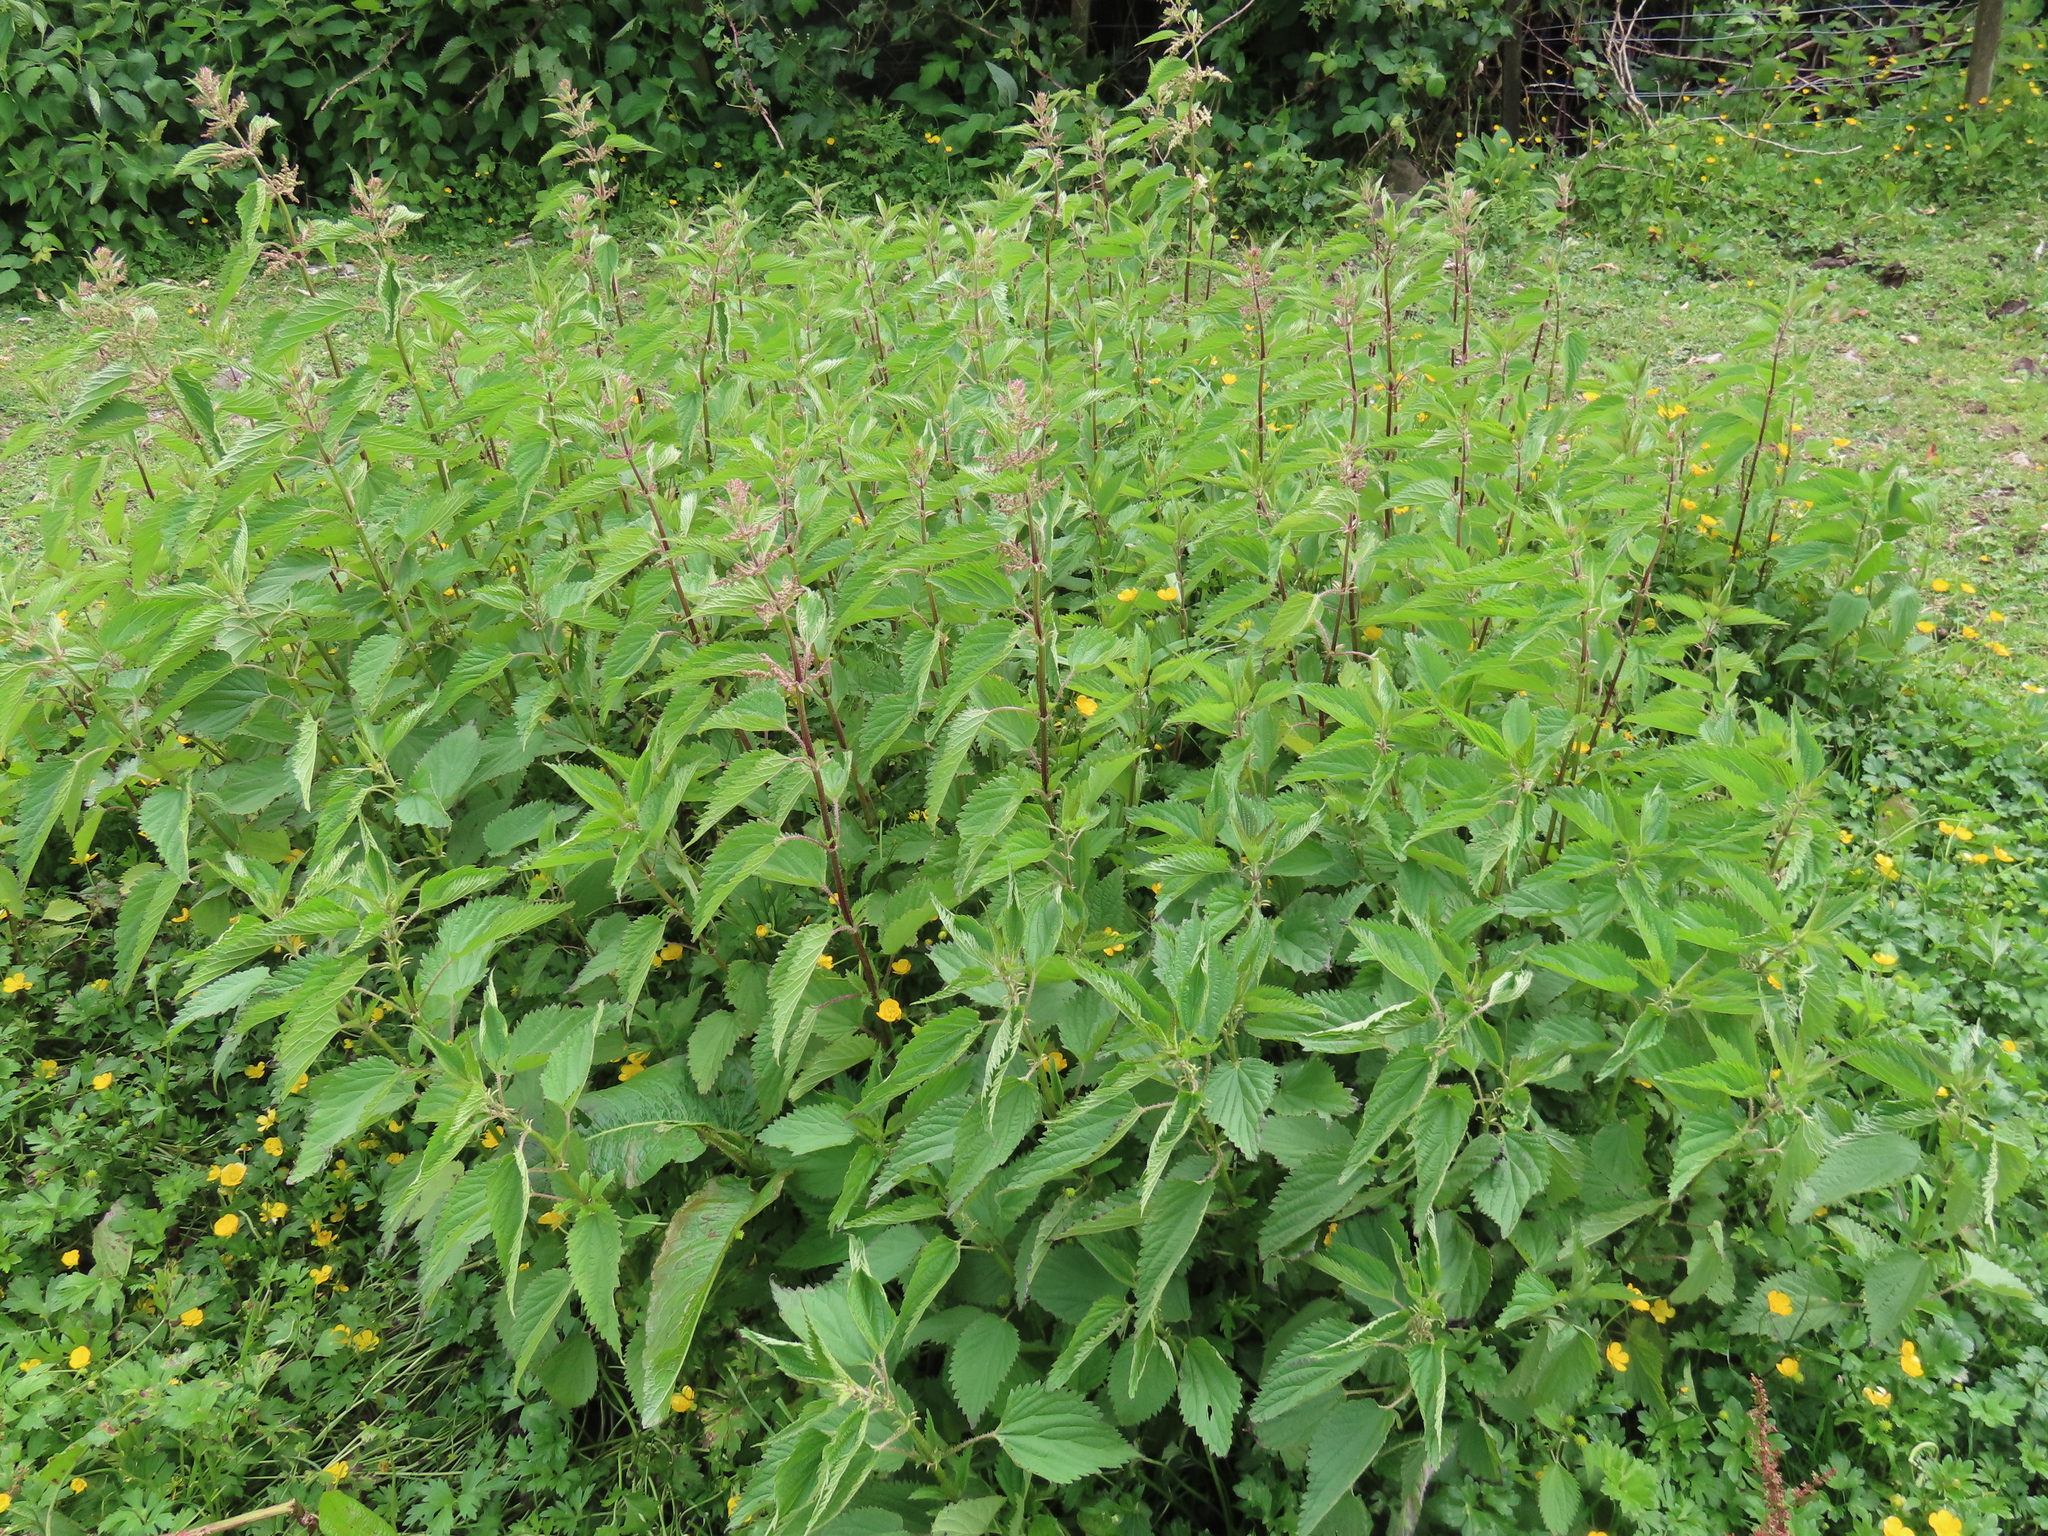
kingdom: Plantae
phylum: Tracheophyta
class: Magnoliopsida
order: Rosales
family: Urticaceae
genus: Urtica
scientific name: Urtica dioica
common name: Common nettle
